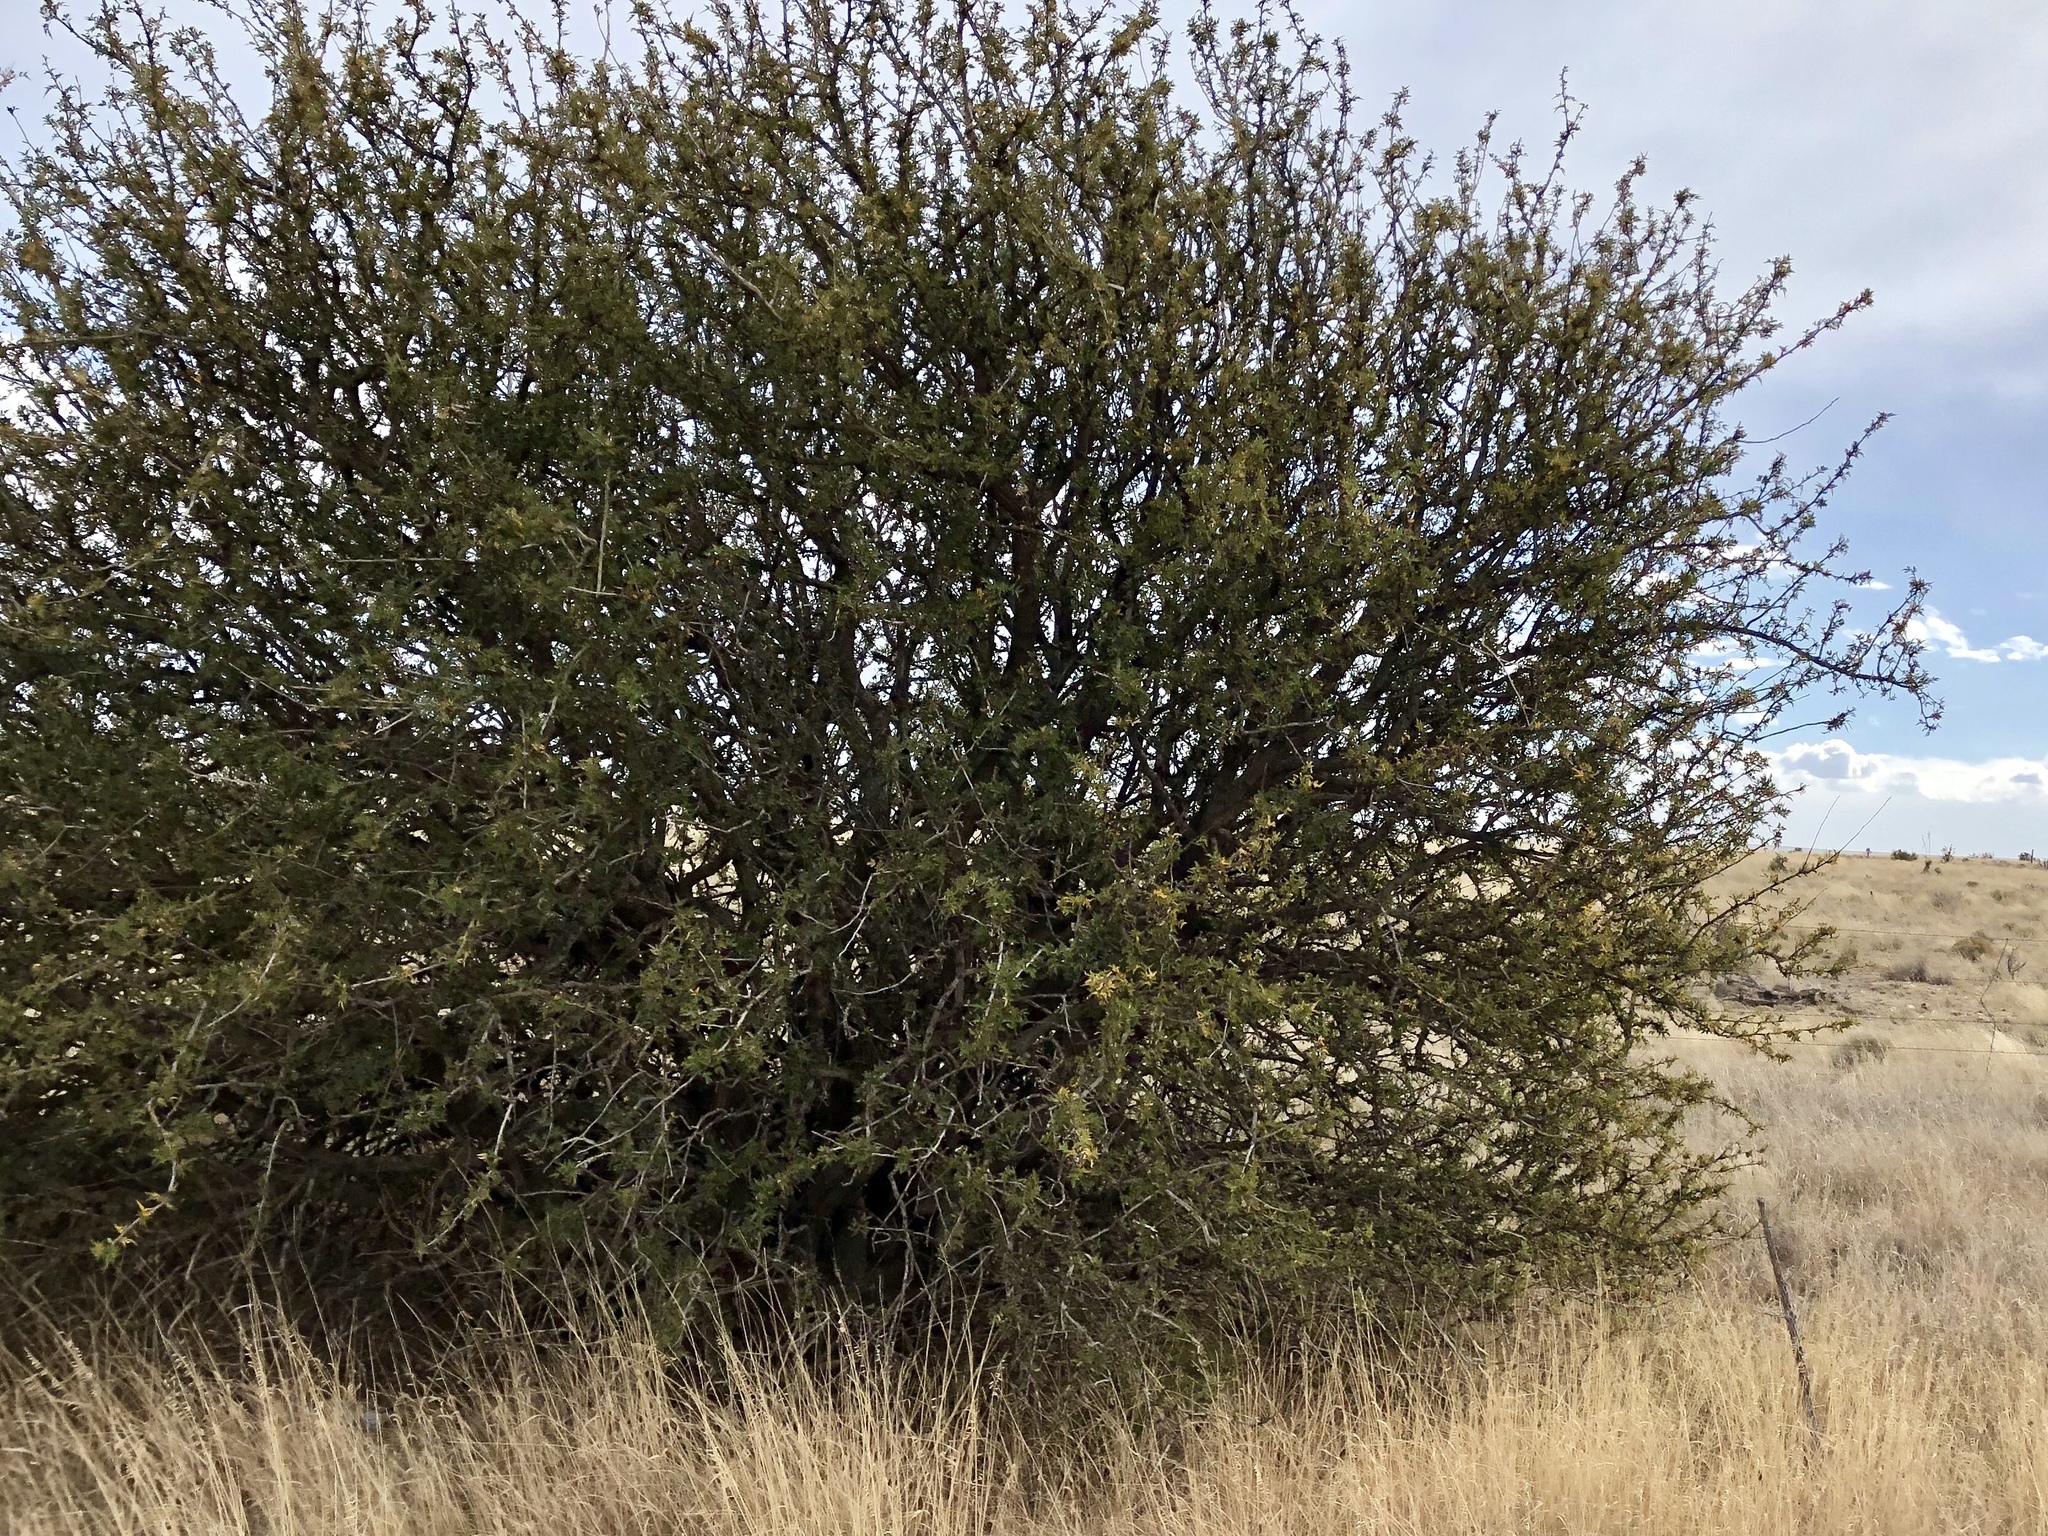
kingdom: Plantae
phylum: Tracheophyta
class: Magnoliopsida
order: Ranunculales
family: Berberidaceae
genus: Alloberberis
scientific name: Alloberberis haematocarpa
